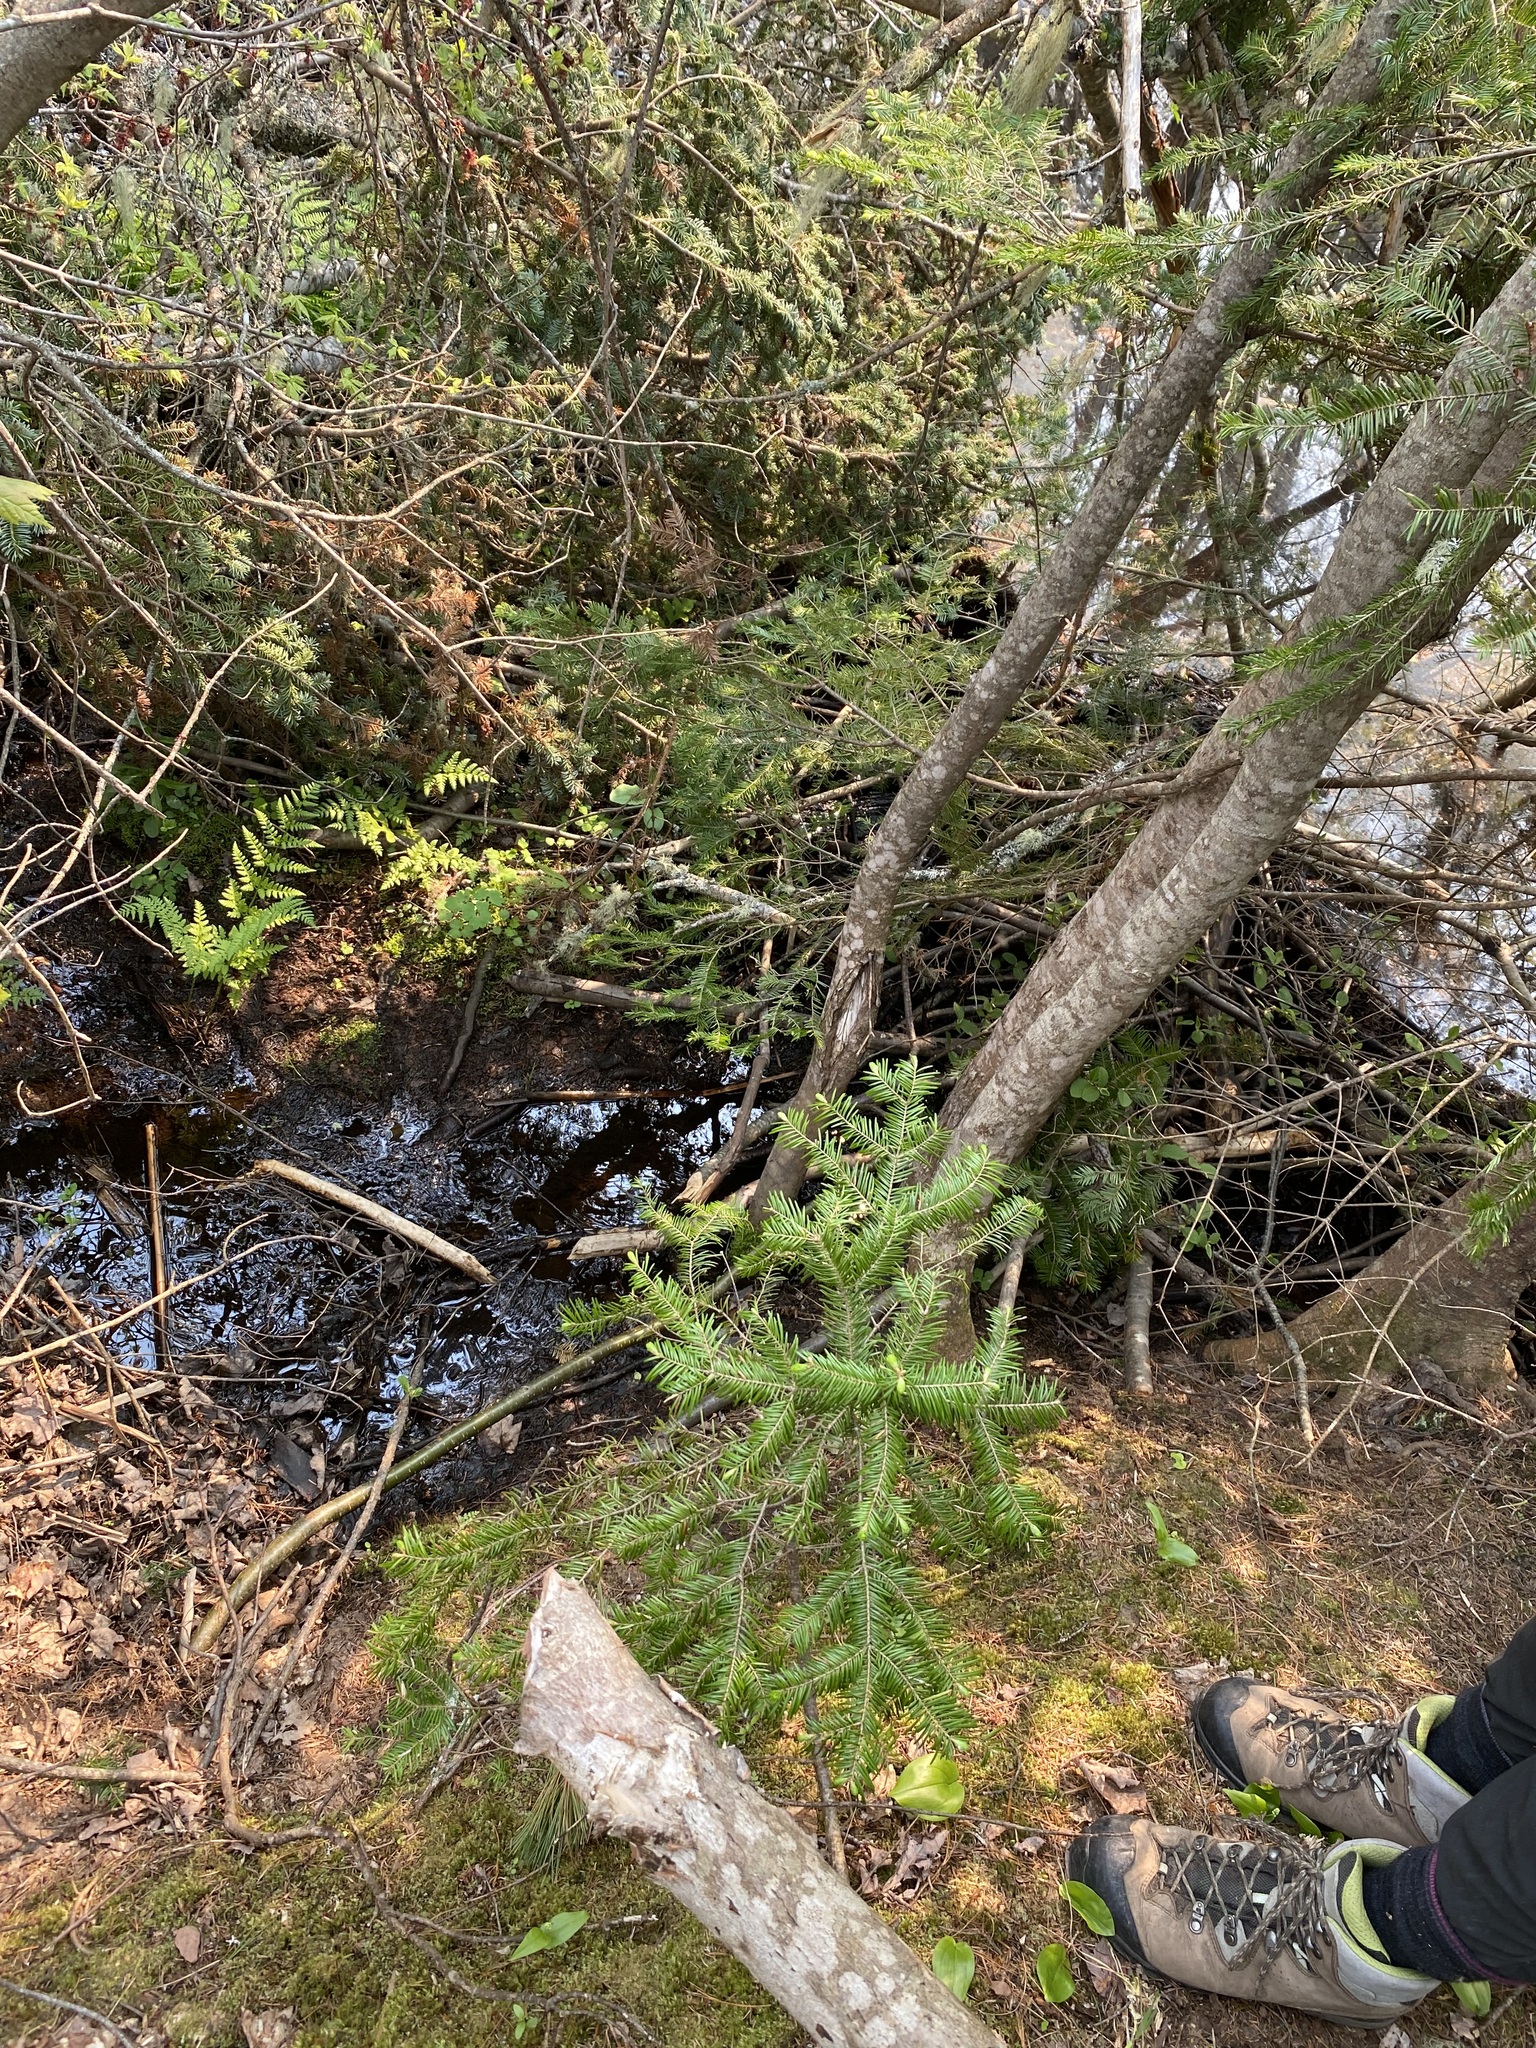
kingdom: Animalia
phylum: Chordata
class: Mammalia
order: Rodentia
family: Castoridae
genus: Castor
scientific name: Castor canadensis
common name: American beaver
